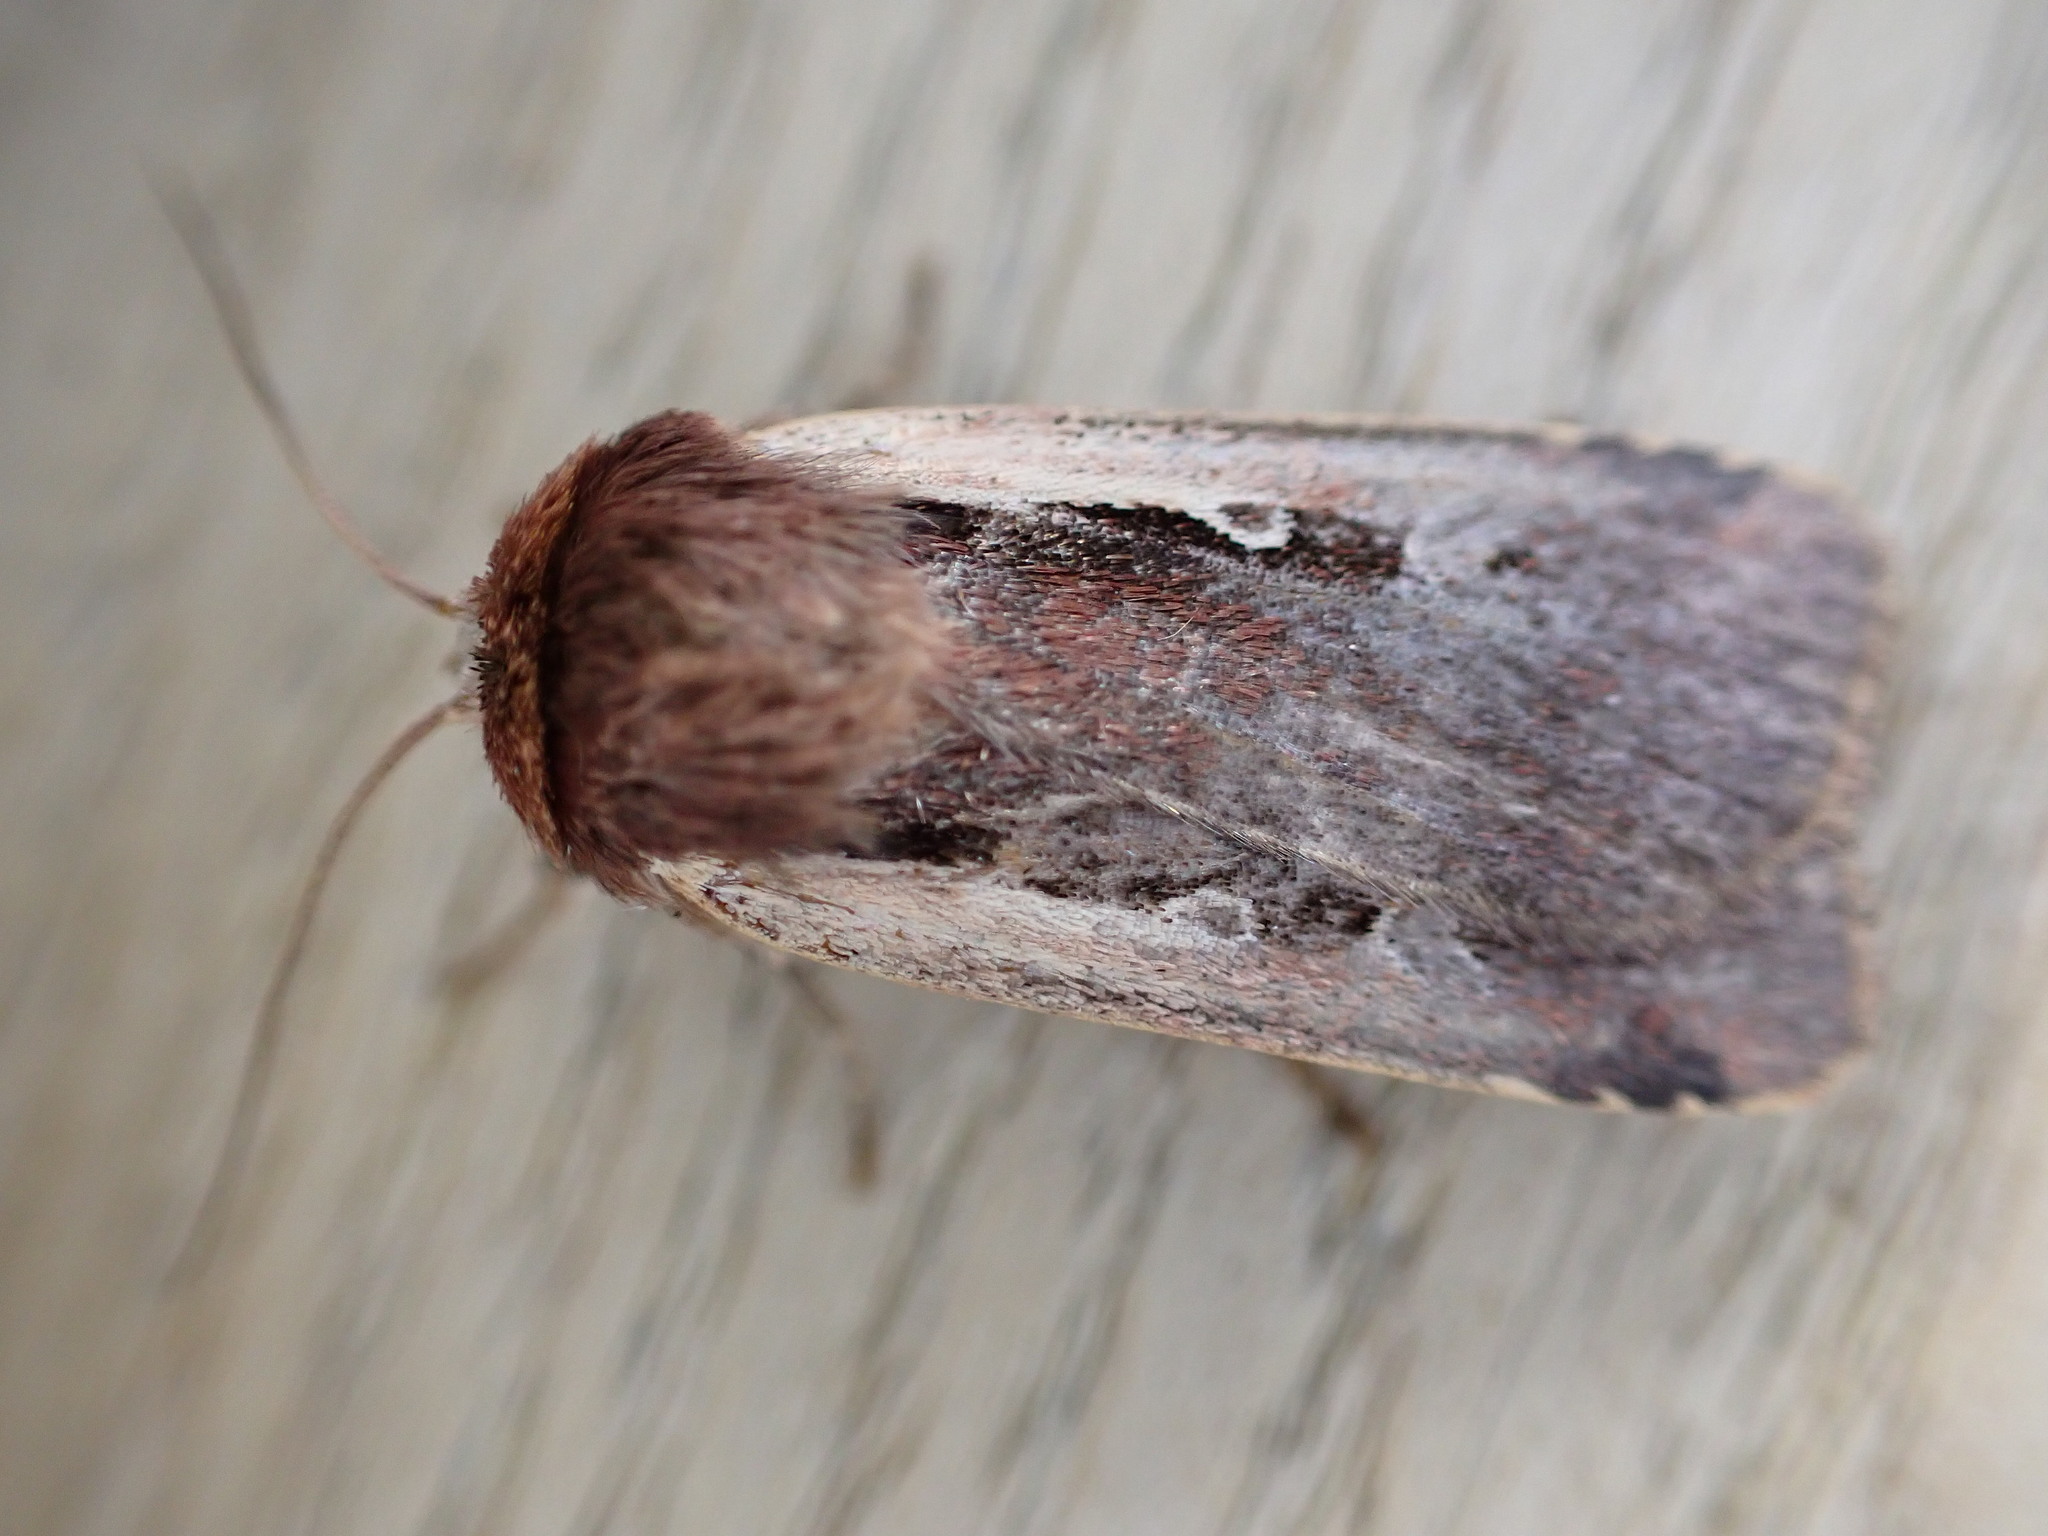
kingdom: Animalia
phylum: Arthropoda
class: Insecta
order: Lepidoptera
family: Noctuidae
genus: Ochropleura
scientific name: Ochropleura plecta
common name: Flame shoulder
